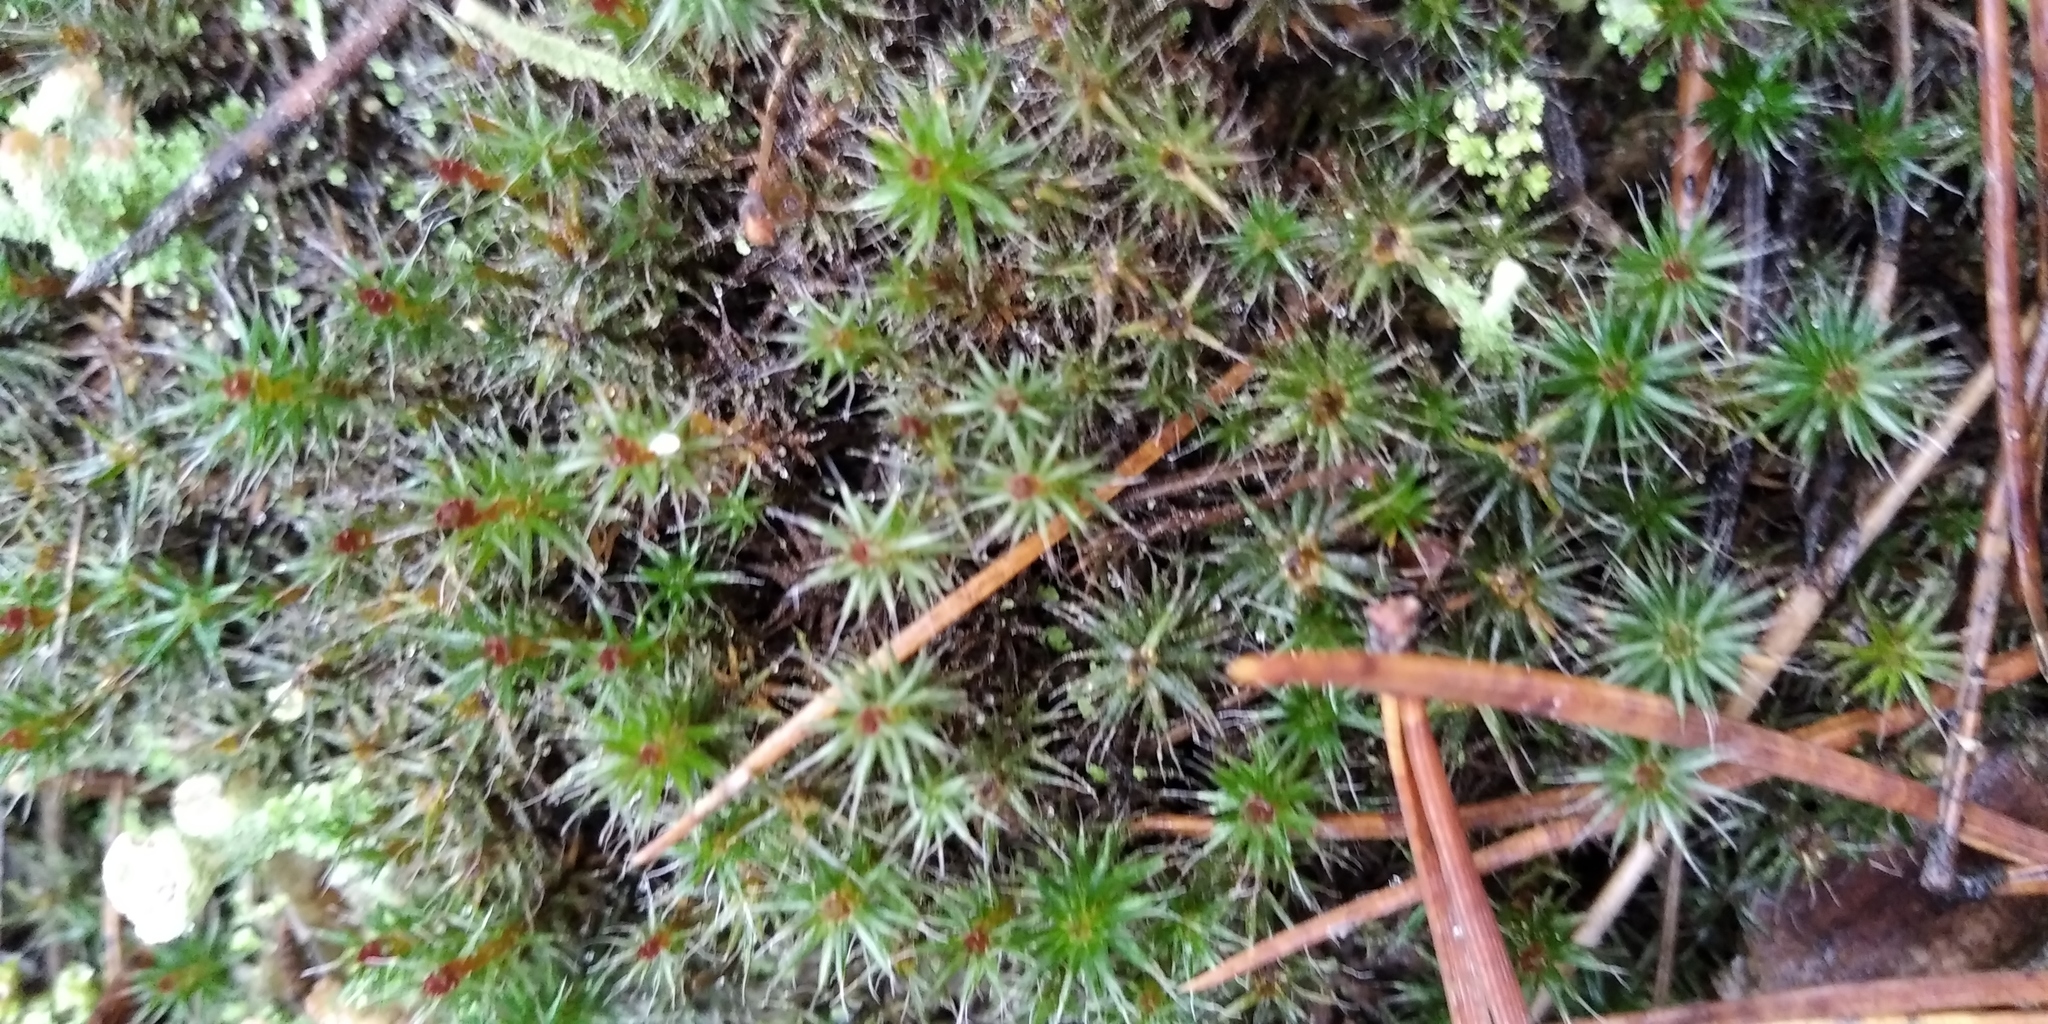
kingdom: Plantae
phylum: Bryophyta
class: Polytrichopsida
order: Polytrichales
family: Polytrichaceae
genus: Polytrichum
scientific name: Polytrichum piliferum
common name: Bristly haircap
